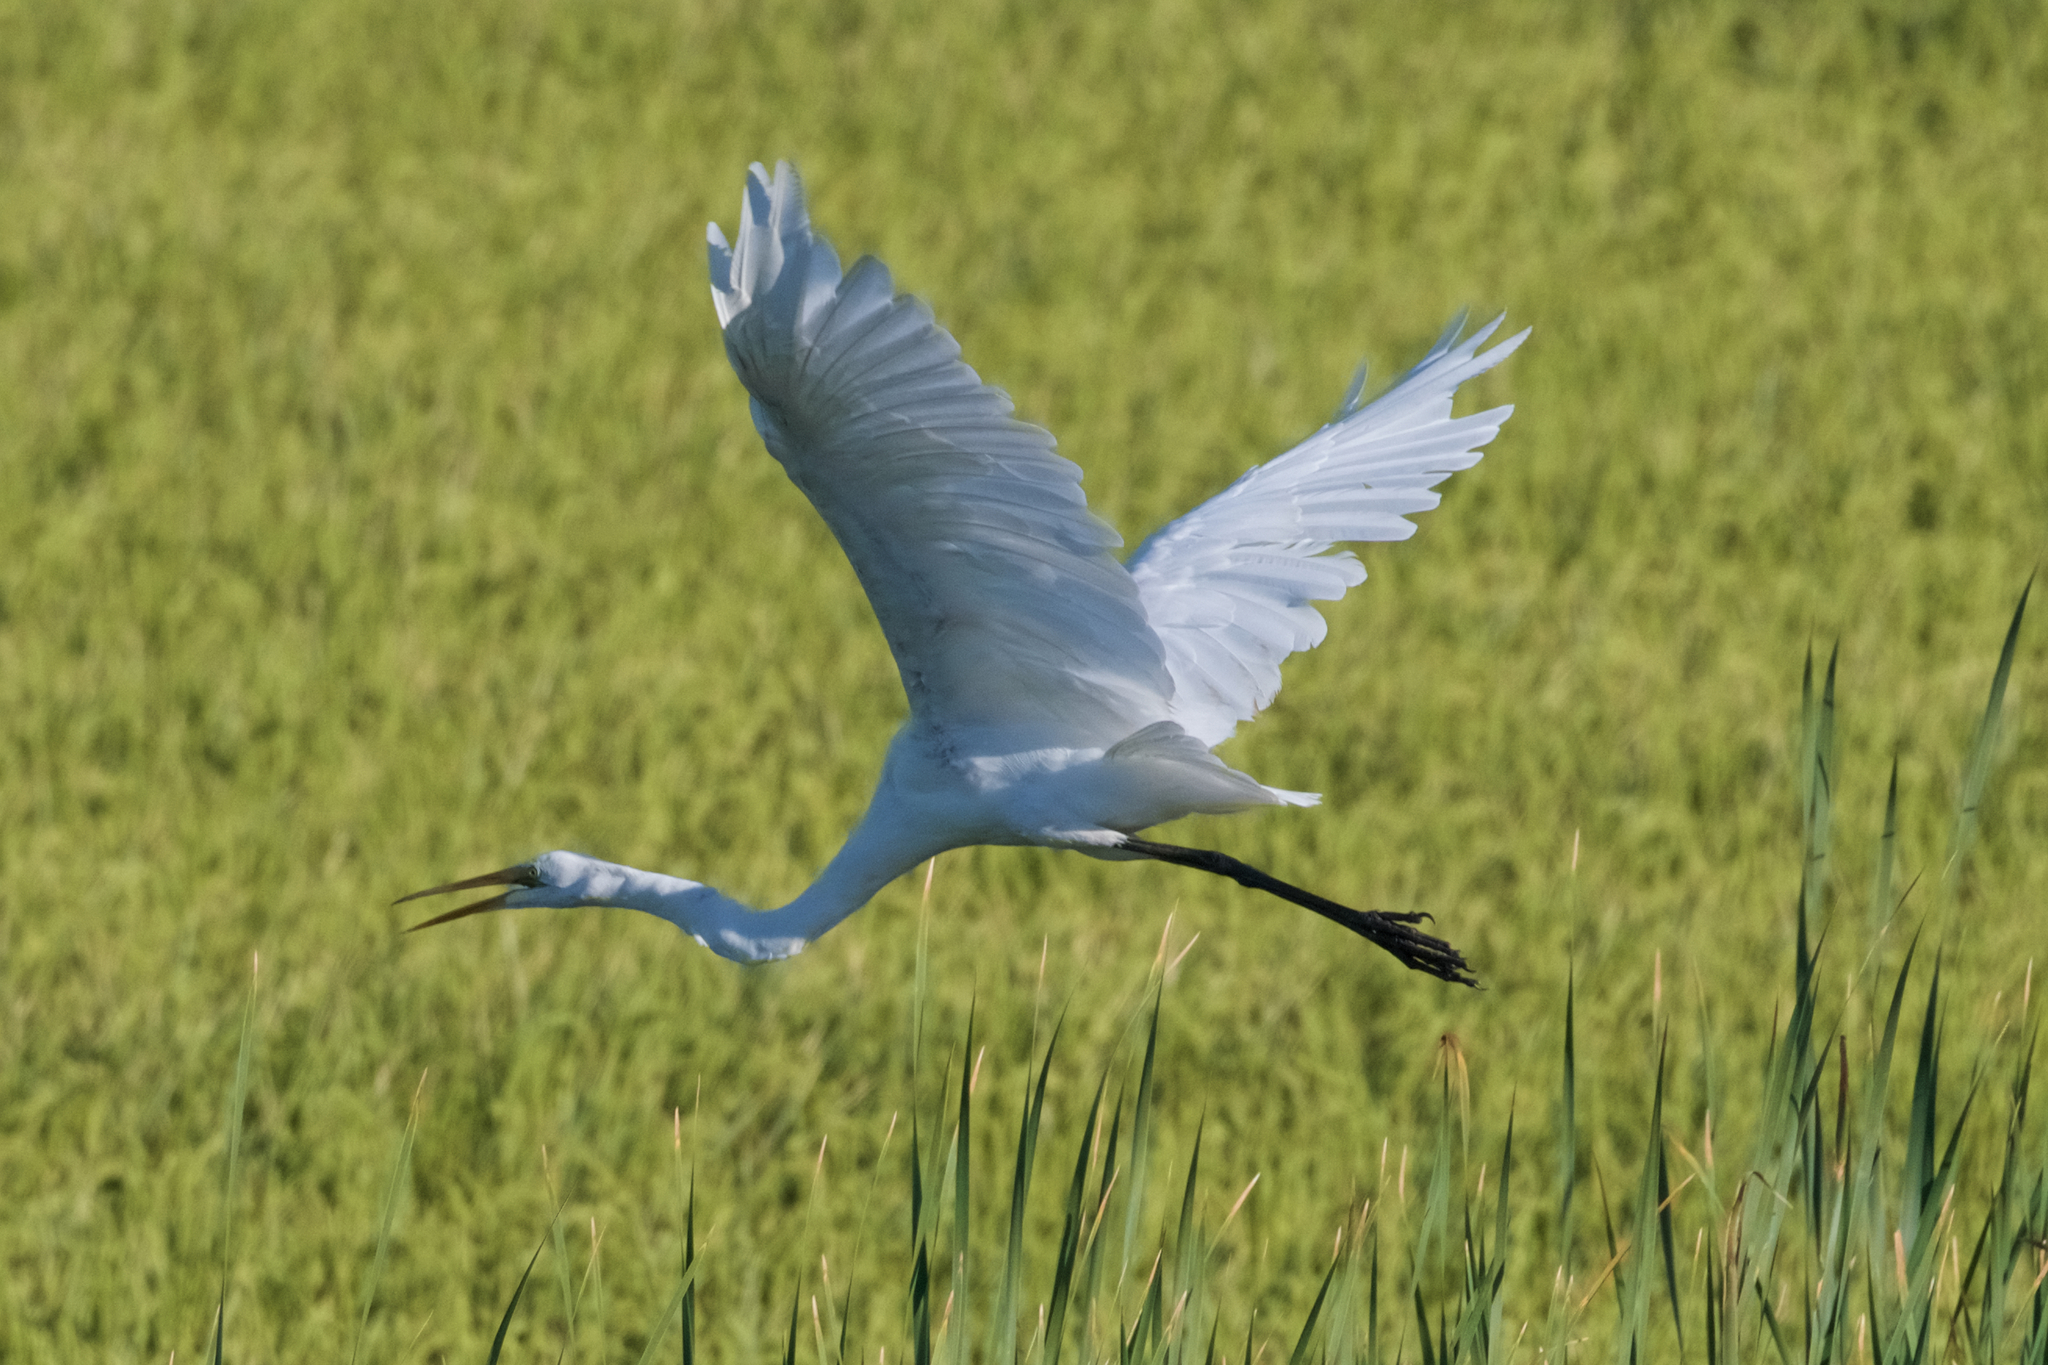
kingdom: Animalia
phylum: Chordata
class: Aves
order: Pelecaniformes
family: Ardeidae
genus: Ardea
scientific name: Ardea alba
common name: Great egret
